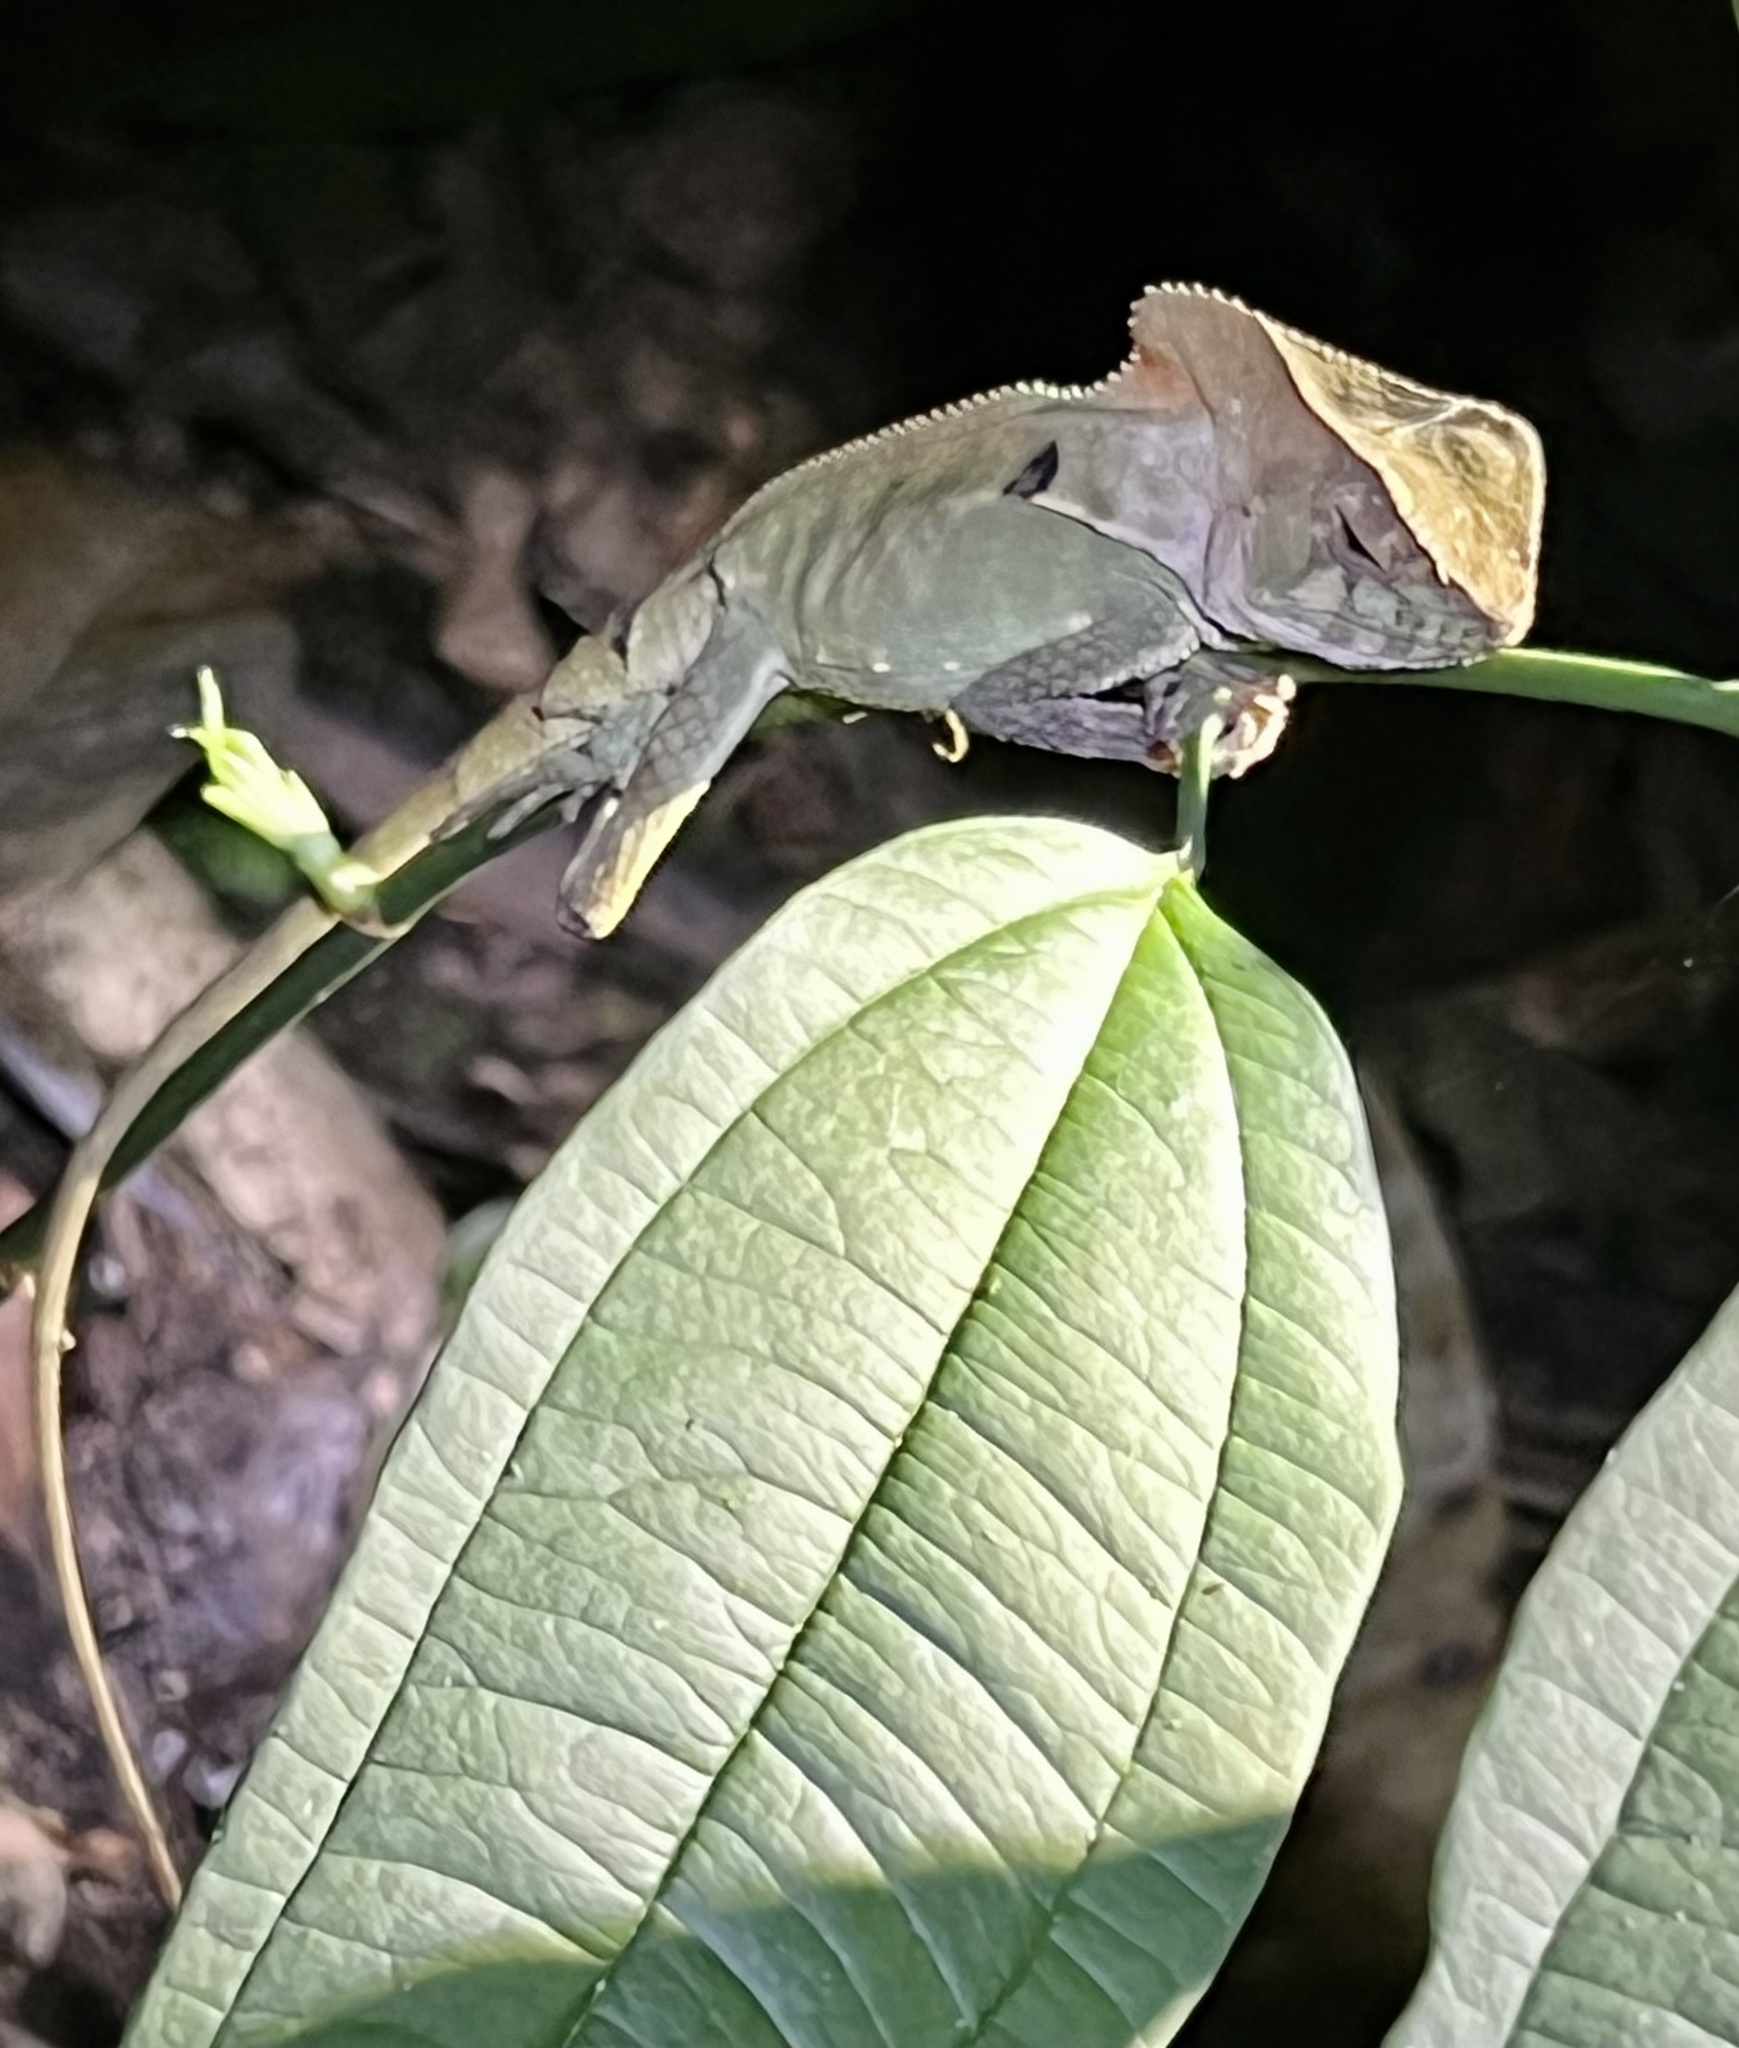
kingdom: Animalia
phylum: Chordata
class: Squamata
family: Corytophanidae
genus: Corytophanes
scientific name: Corytophanes cristatus
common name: Smooth helmeted iguana
